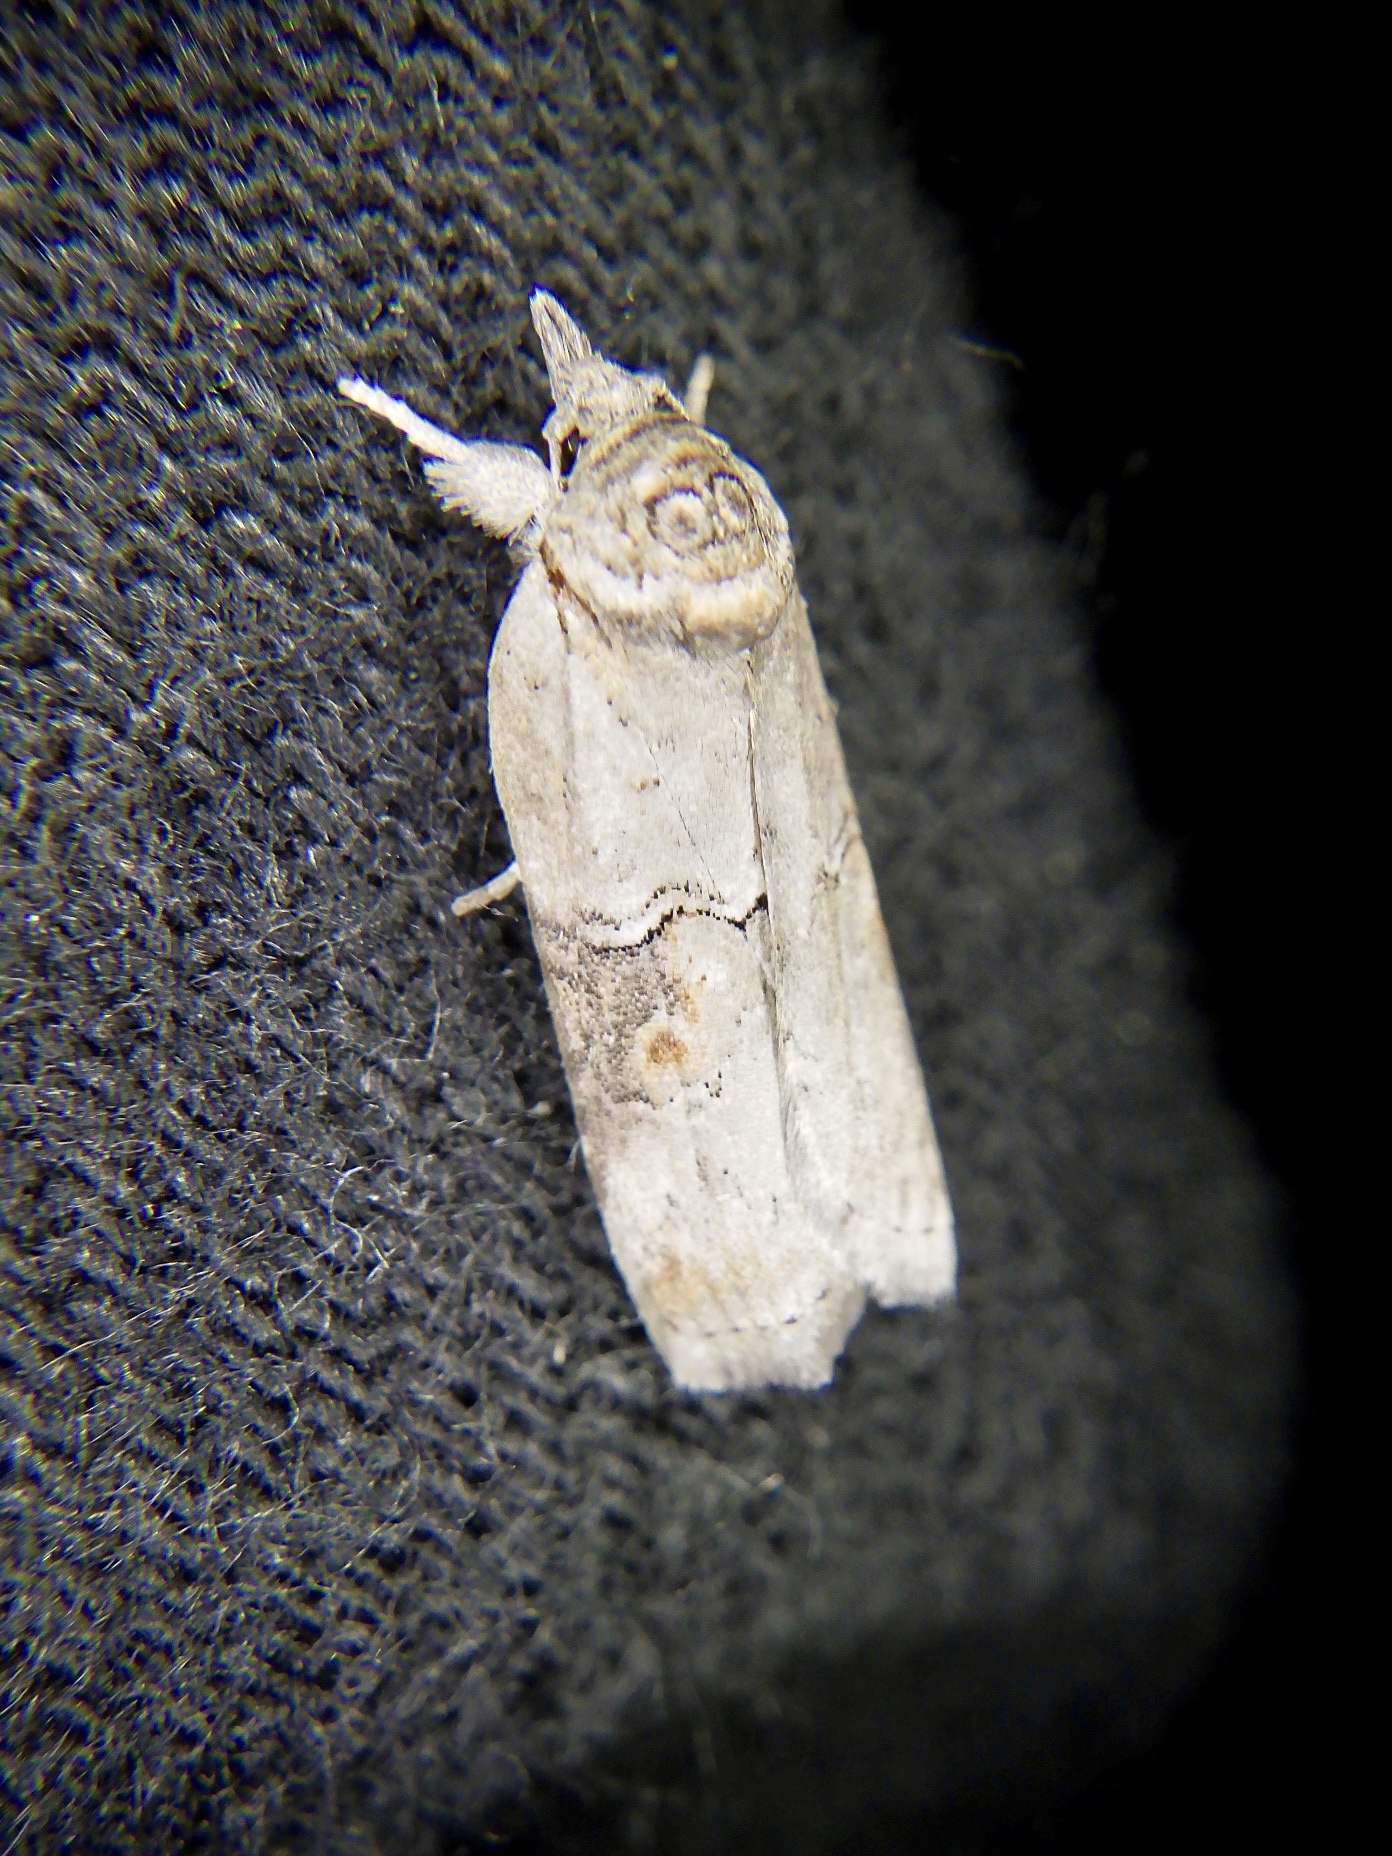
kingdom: Animalia
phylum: Arthropoda
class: Insecta
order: Lepidoptera
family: Nolidae
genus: Nycteola
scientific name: Nycteola asiatica
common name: Eastern nycteoline
